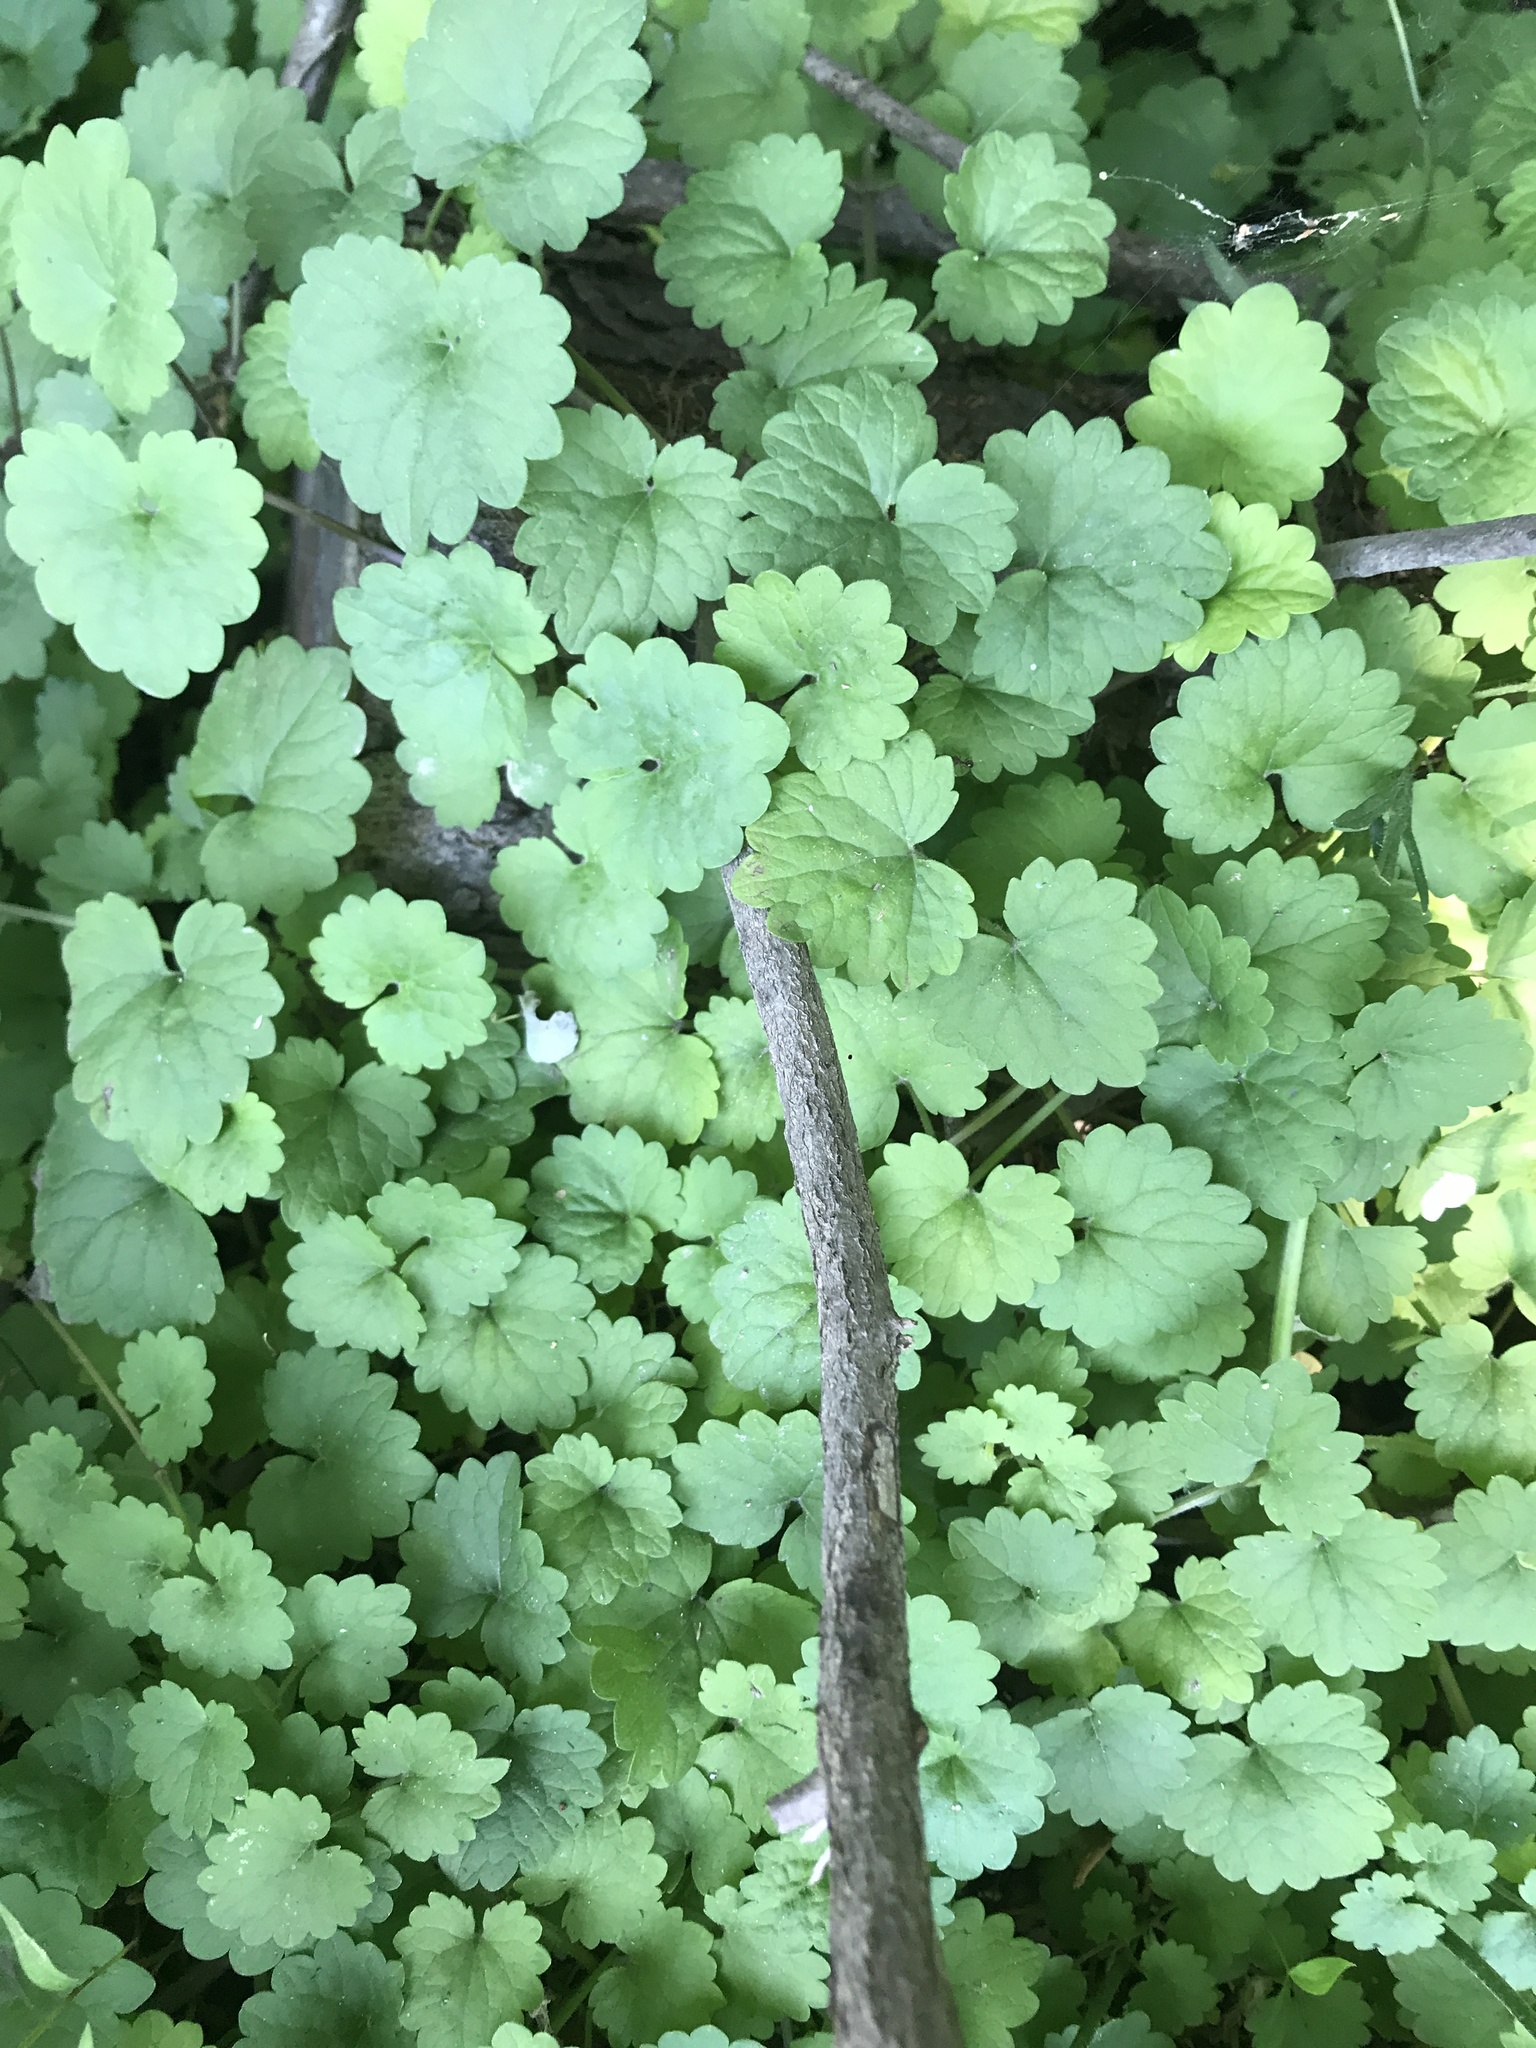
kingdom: Plantae
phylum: Tracheophyta
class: Magnoliopsida
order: Lamiales
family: Lamiaceae
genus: Glechoma
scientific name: Glechoma hederacea
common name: Ground ivy
